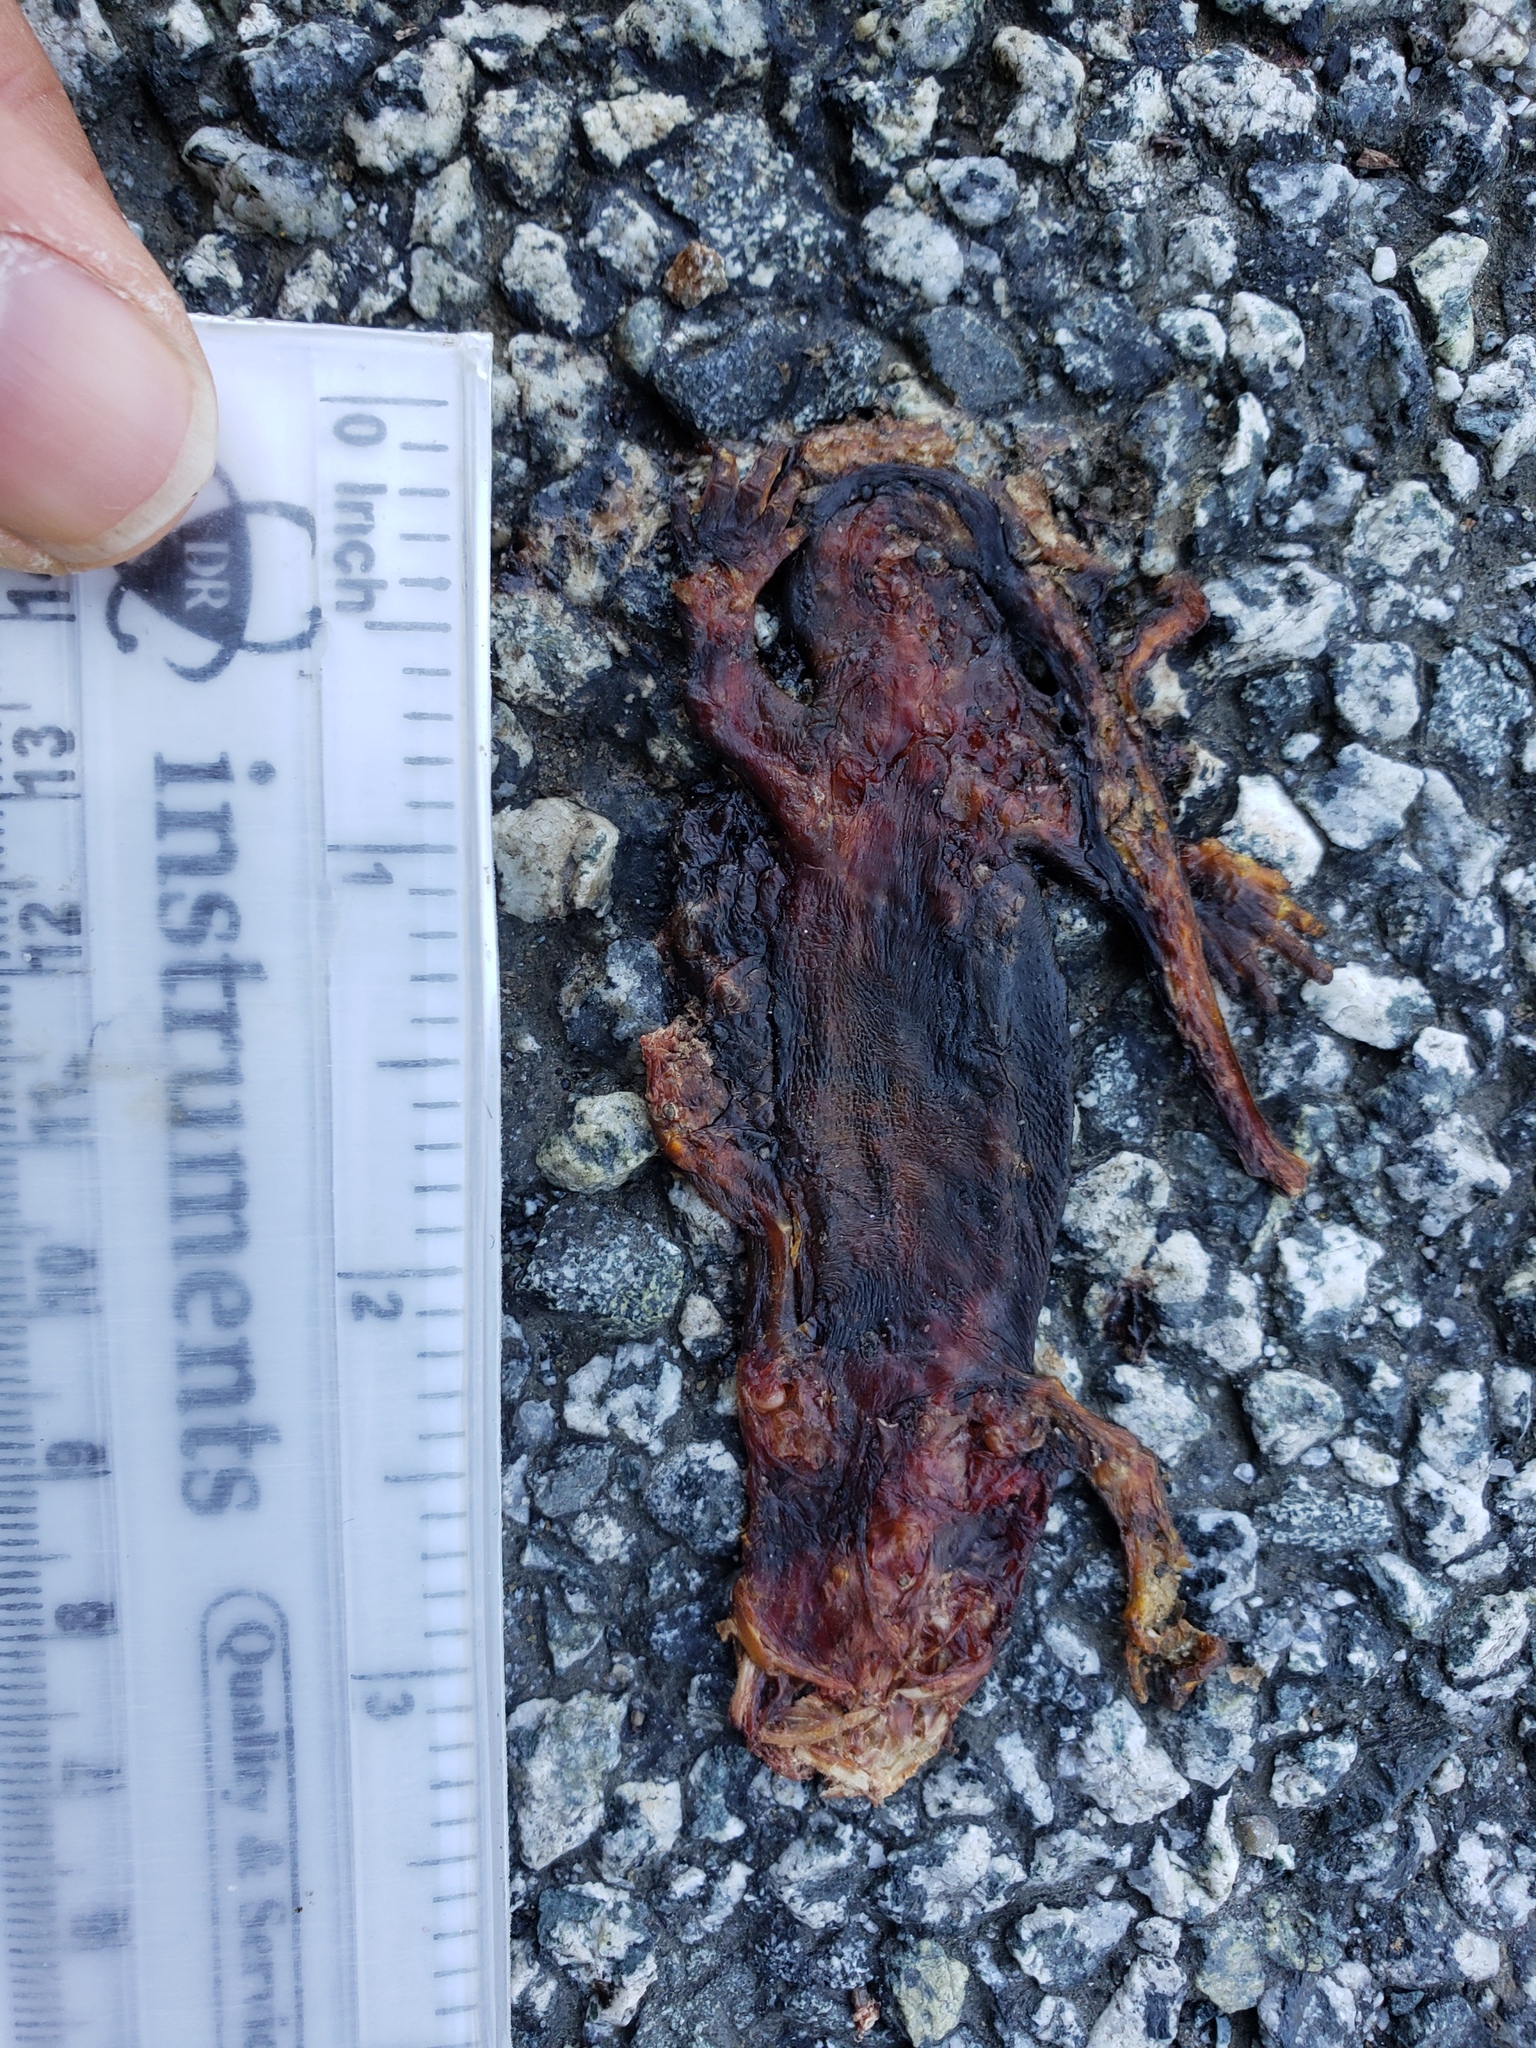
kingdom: Animalia
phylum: Chordata
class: Amphibia
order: Caudata
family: Salamandridae
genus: Taricha
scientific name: Taricha
